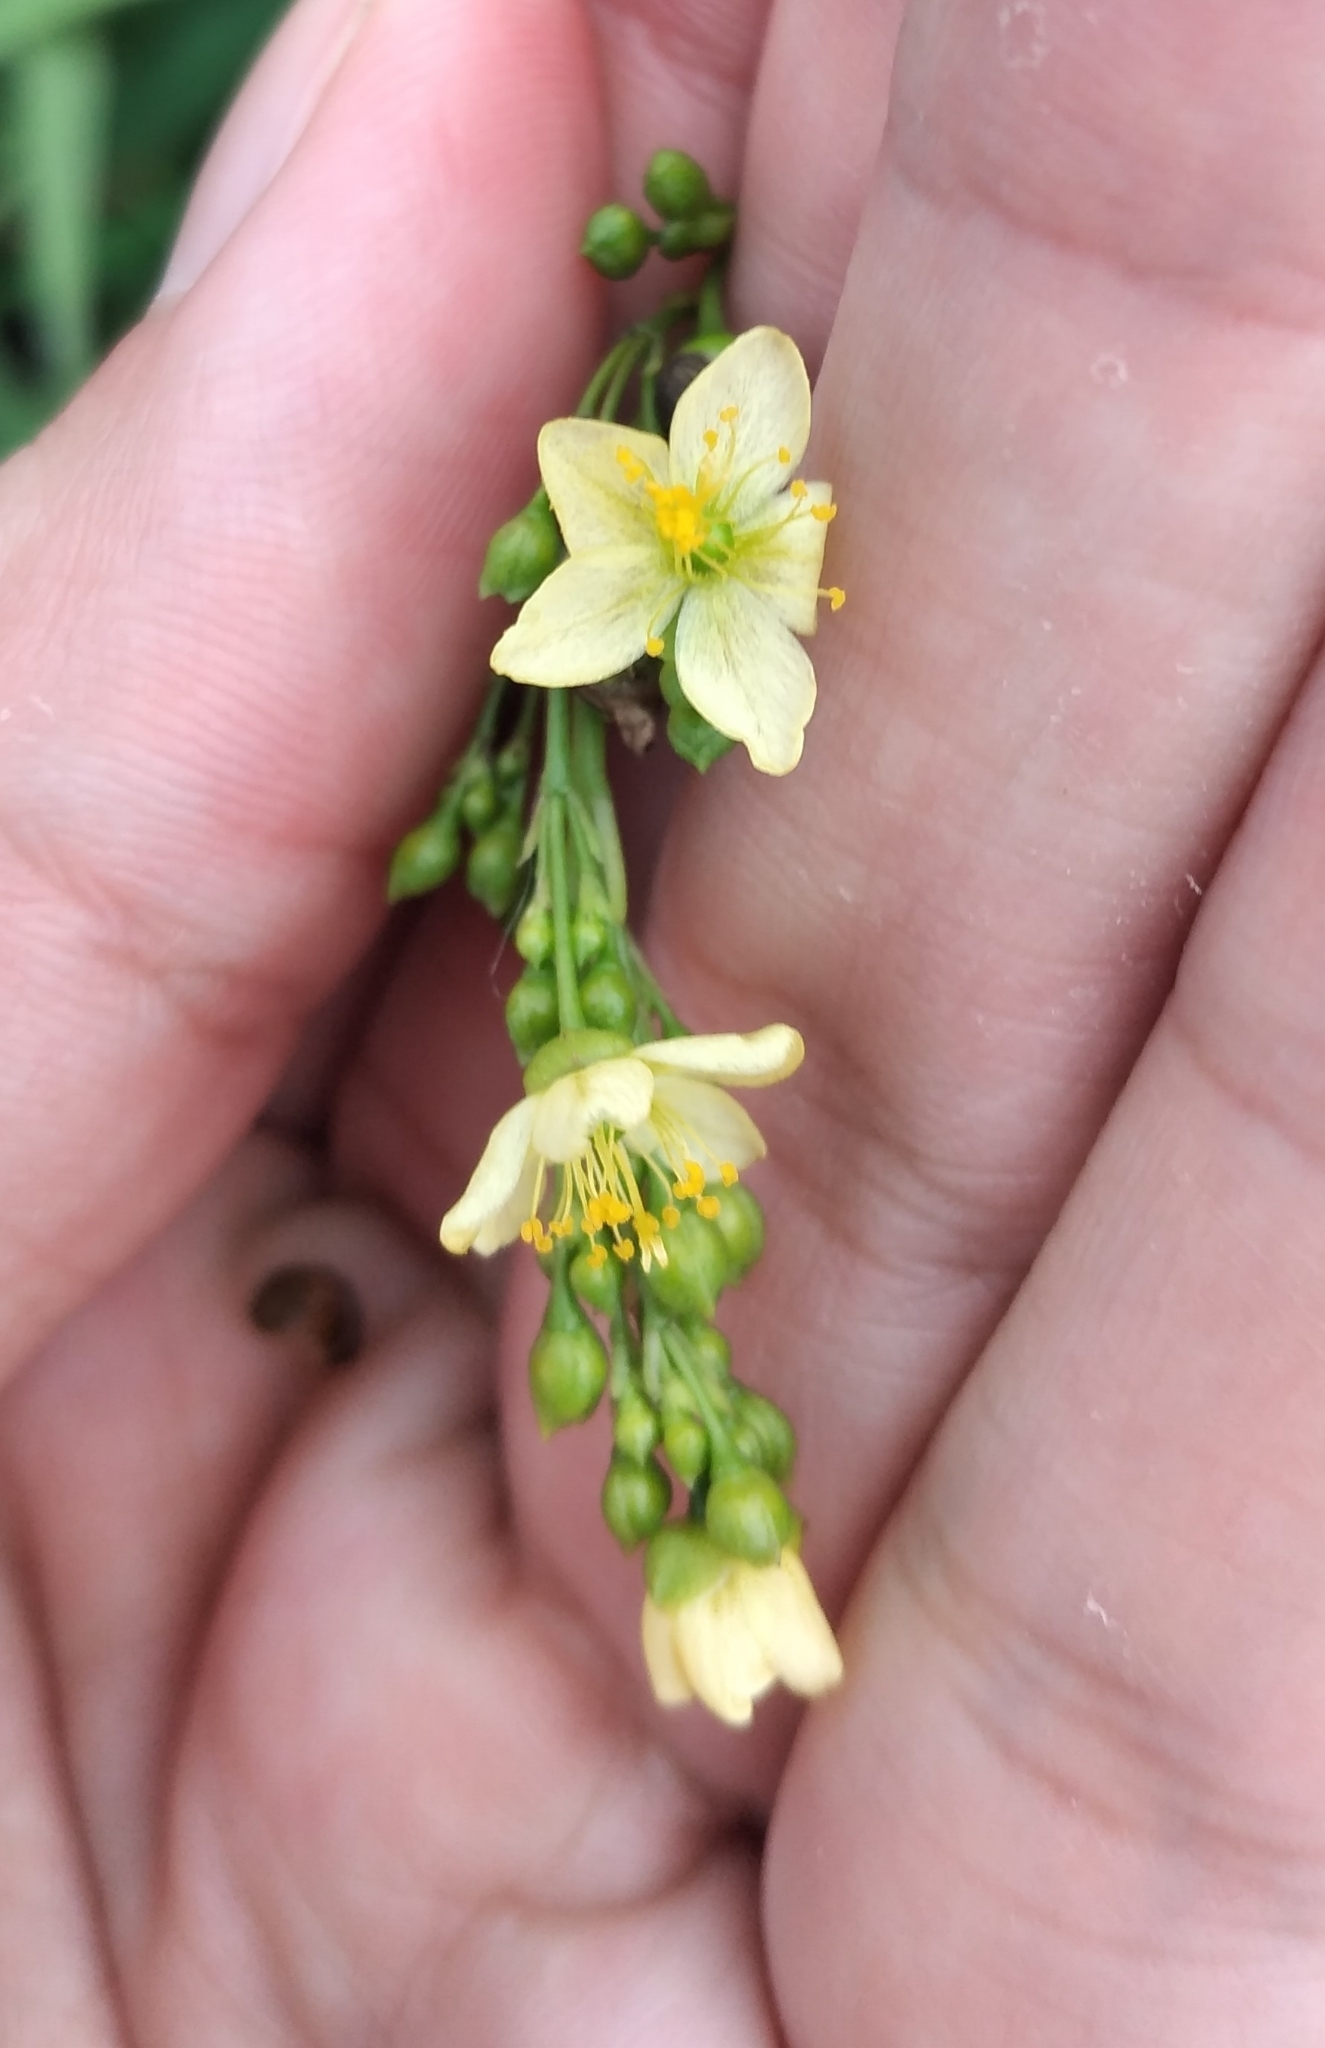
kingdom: Plantae
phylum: Tracheophyta
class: Magnoliopsida
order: Caryophyllales
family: Talinaceae
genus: Talinum
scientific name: Talinum paniculatum
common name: Jewels of opar
